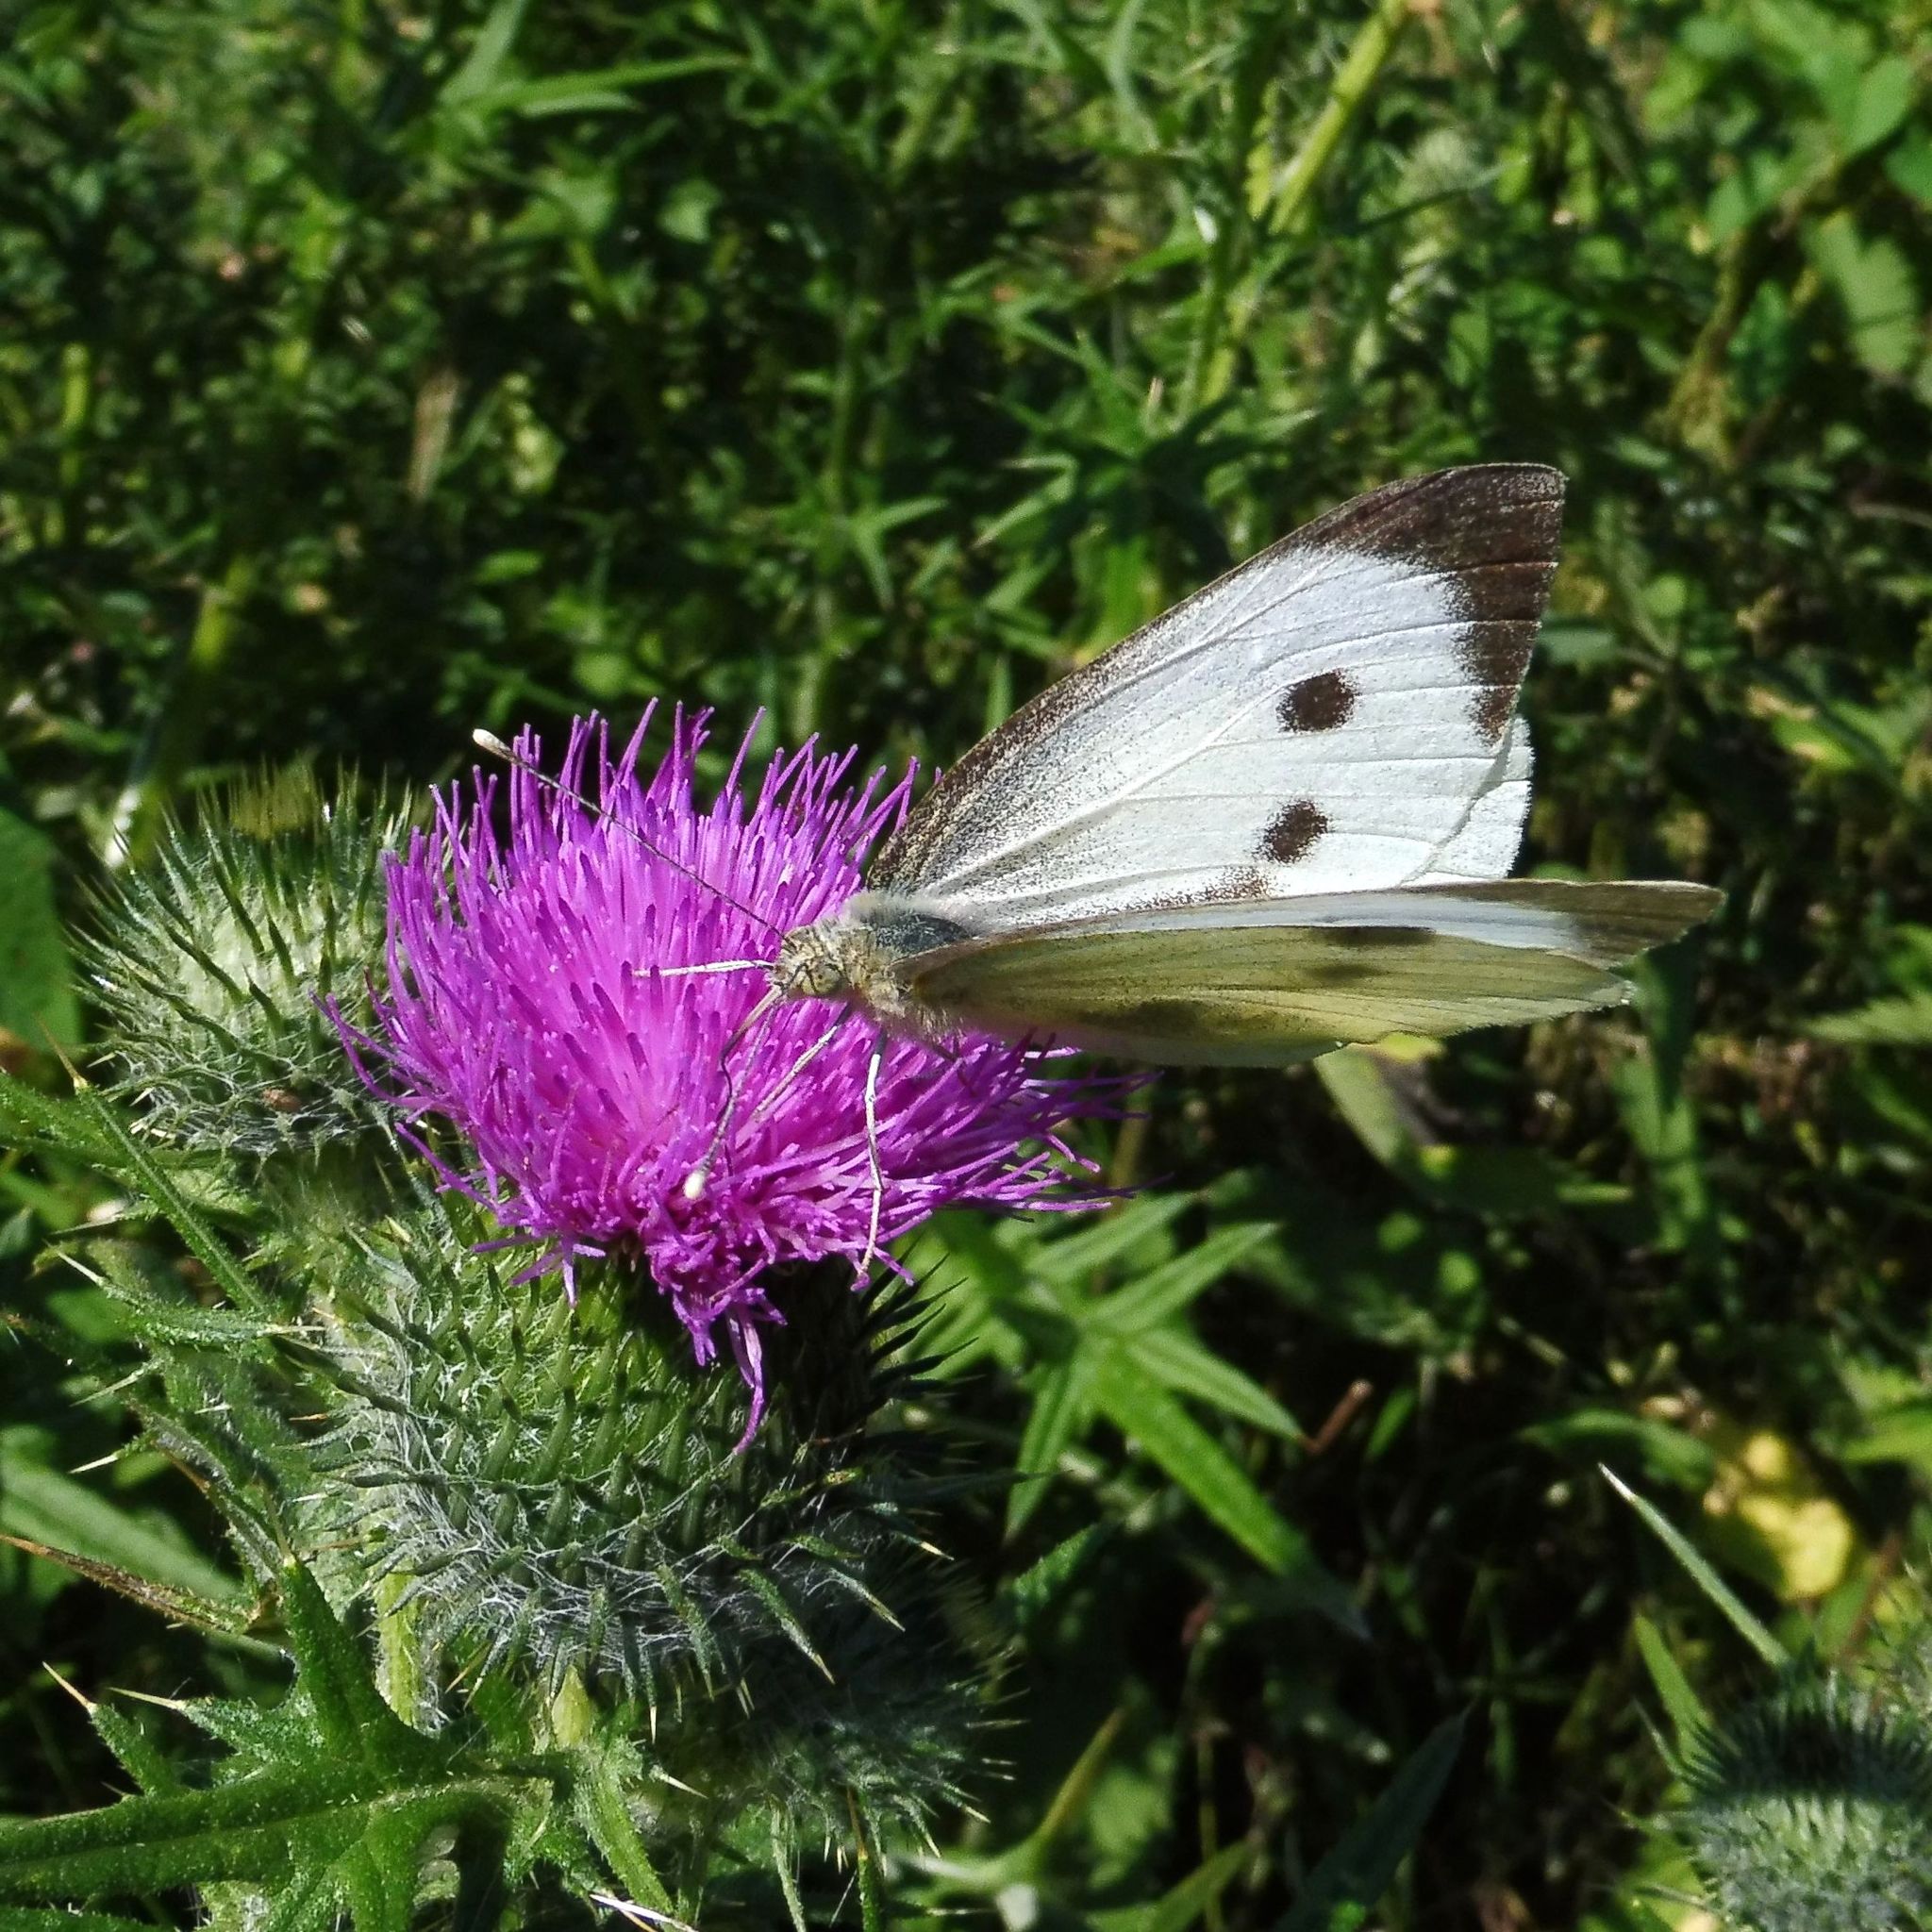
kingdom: Animalia
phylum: Arthropoda
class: Insecta
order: Lepidoptera
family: Pieridae
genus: Pieris
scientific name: Pieris brassicae
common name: Large white
